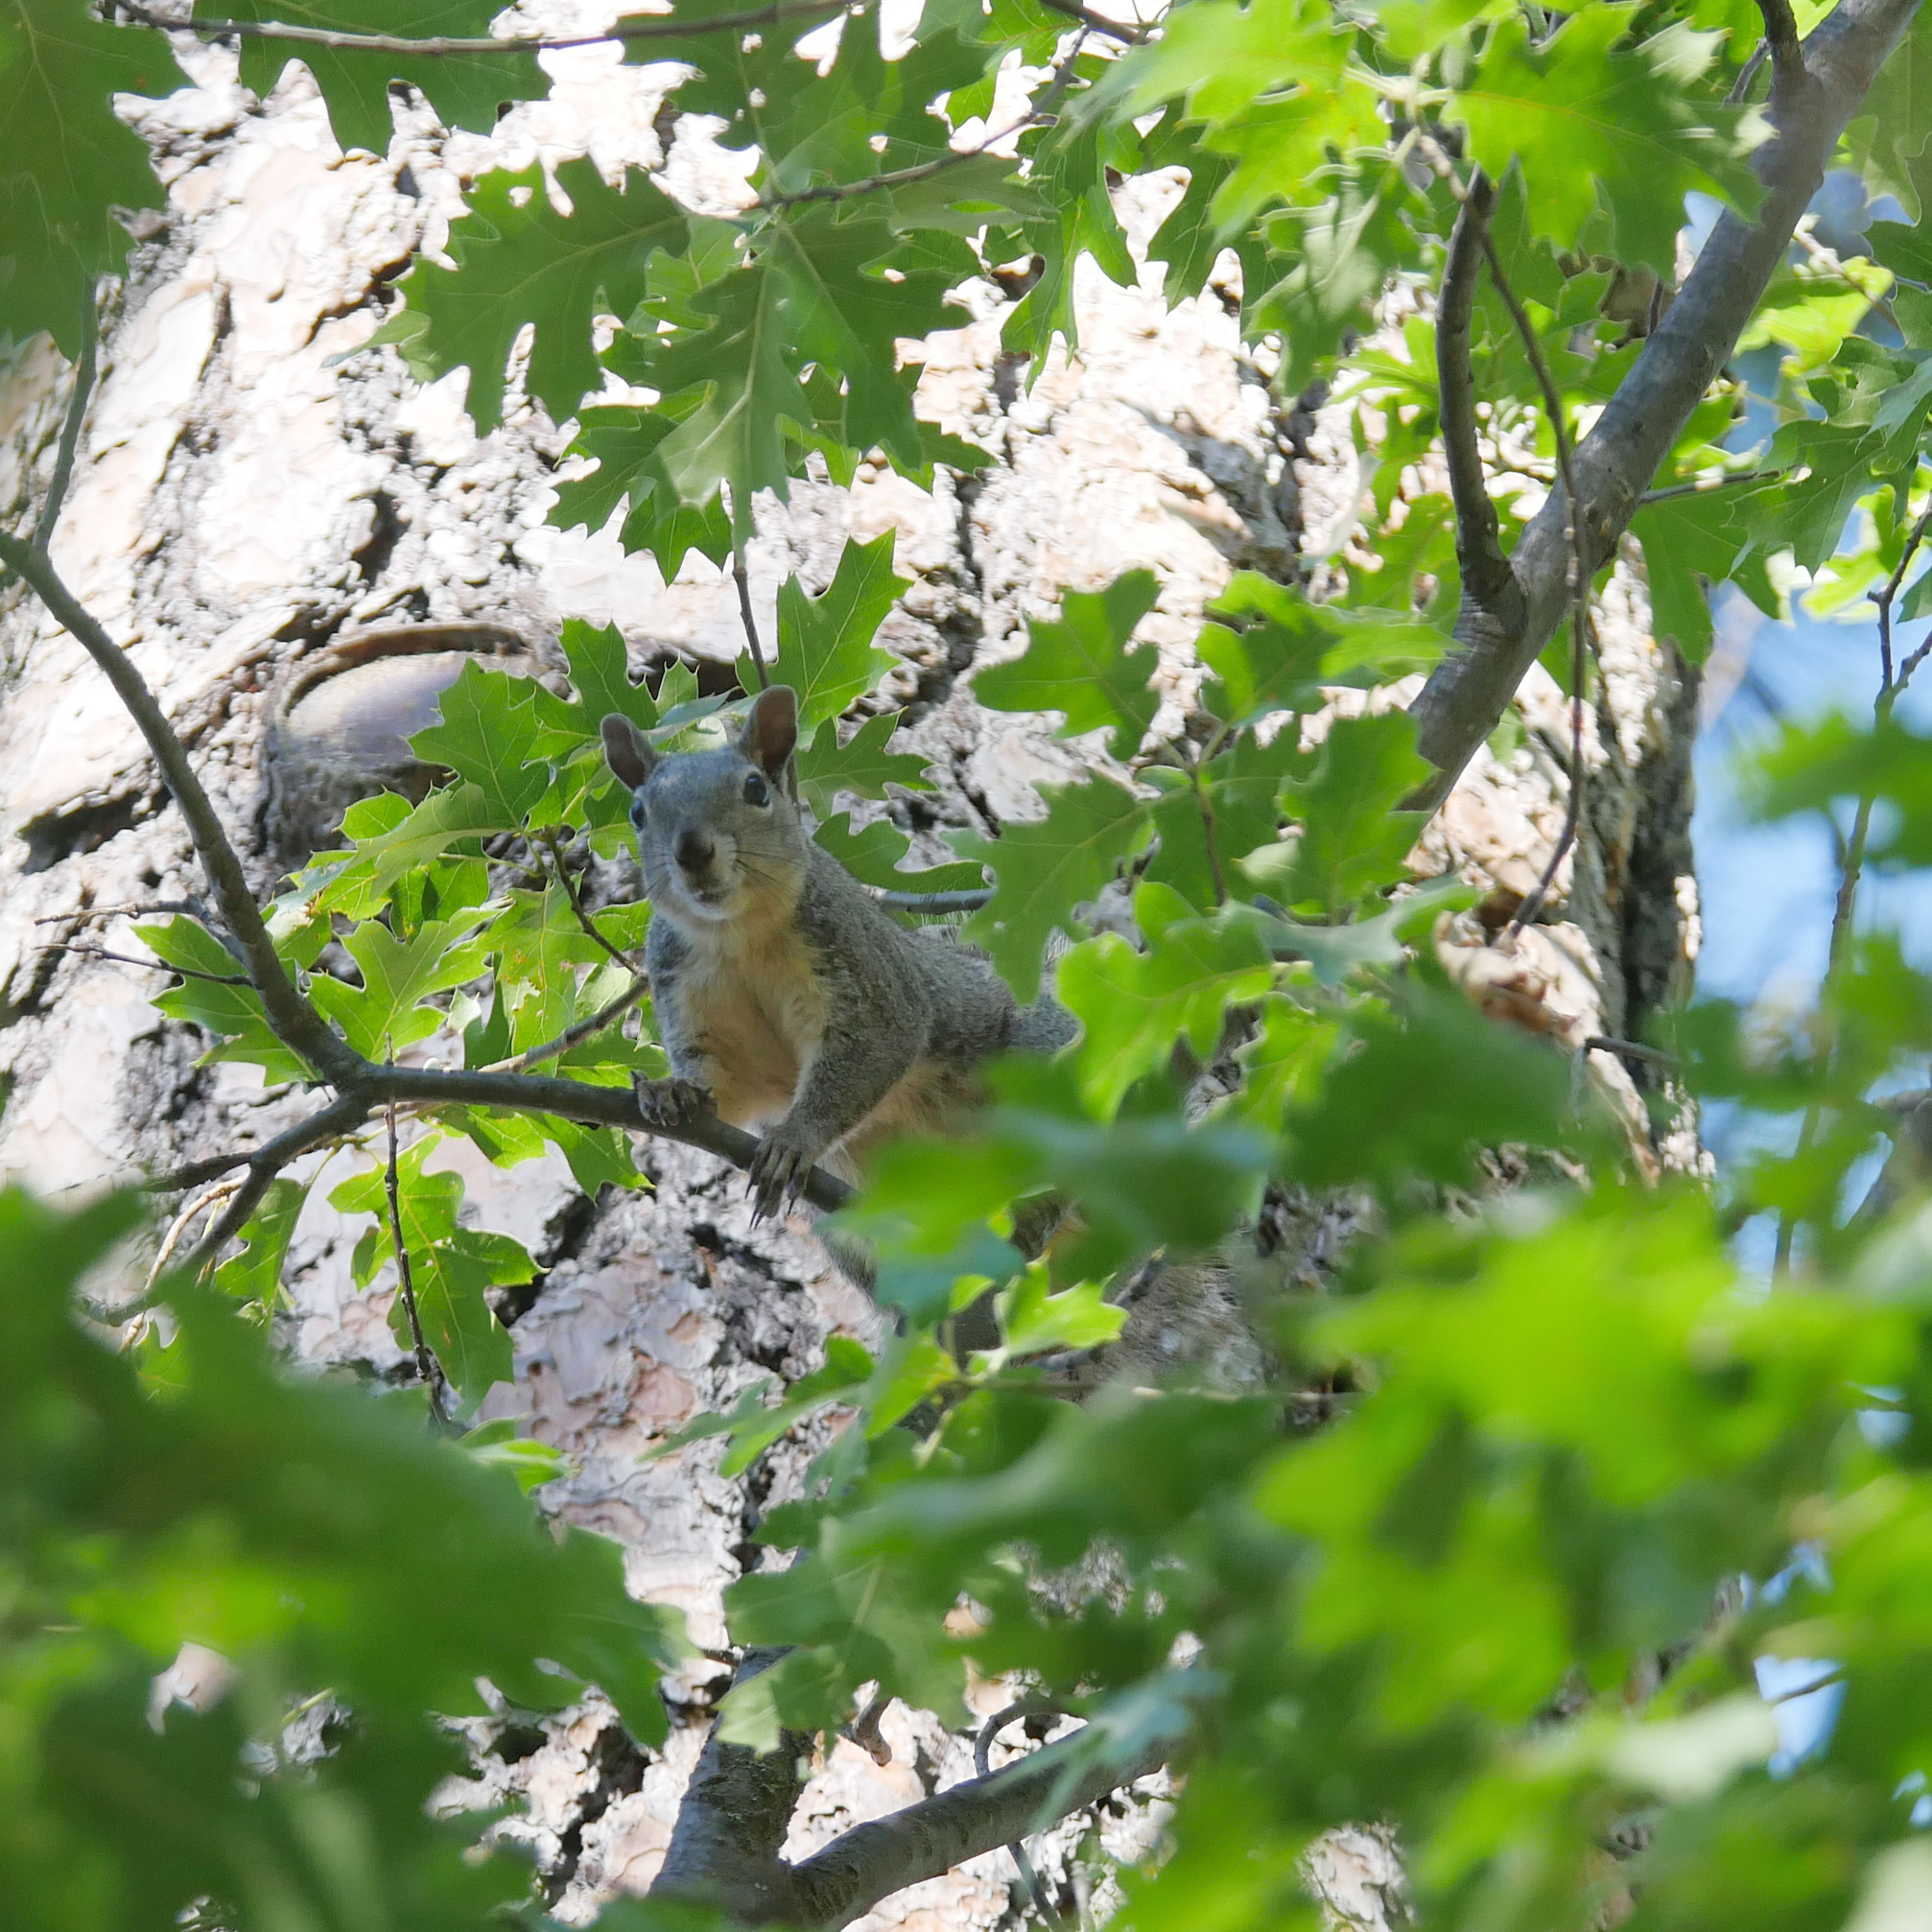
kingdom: Animalia
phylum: Chordata
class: Mammalia
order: Rodentia
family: Sciuridae
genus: Sciurus
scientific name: Sciurus griseus
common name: Western gray squirrel
